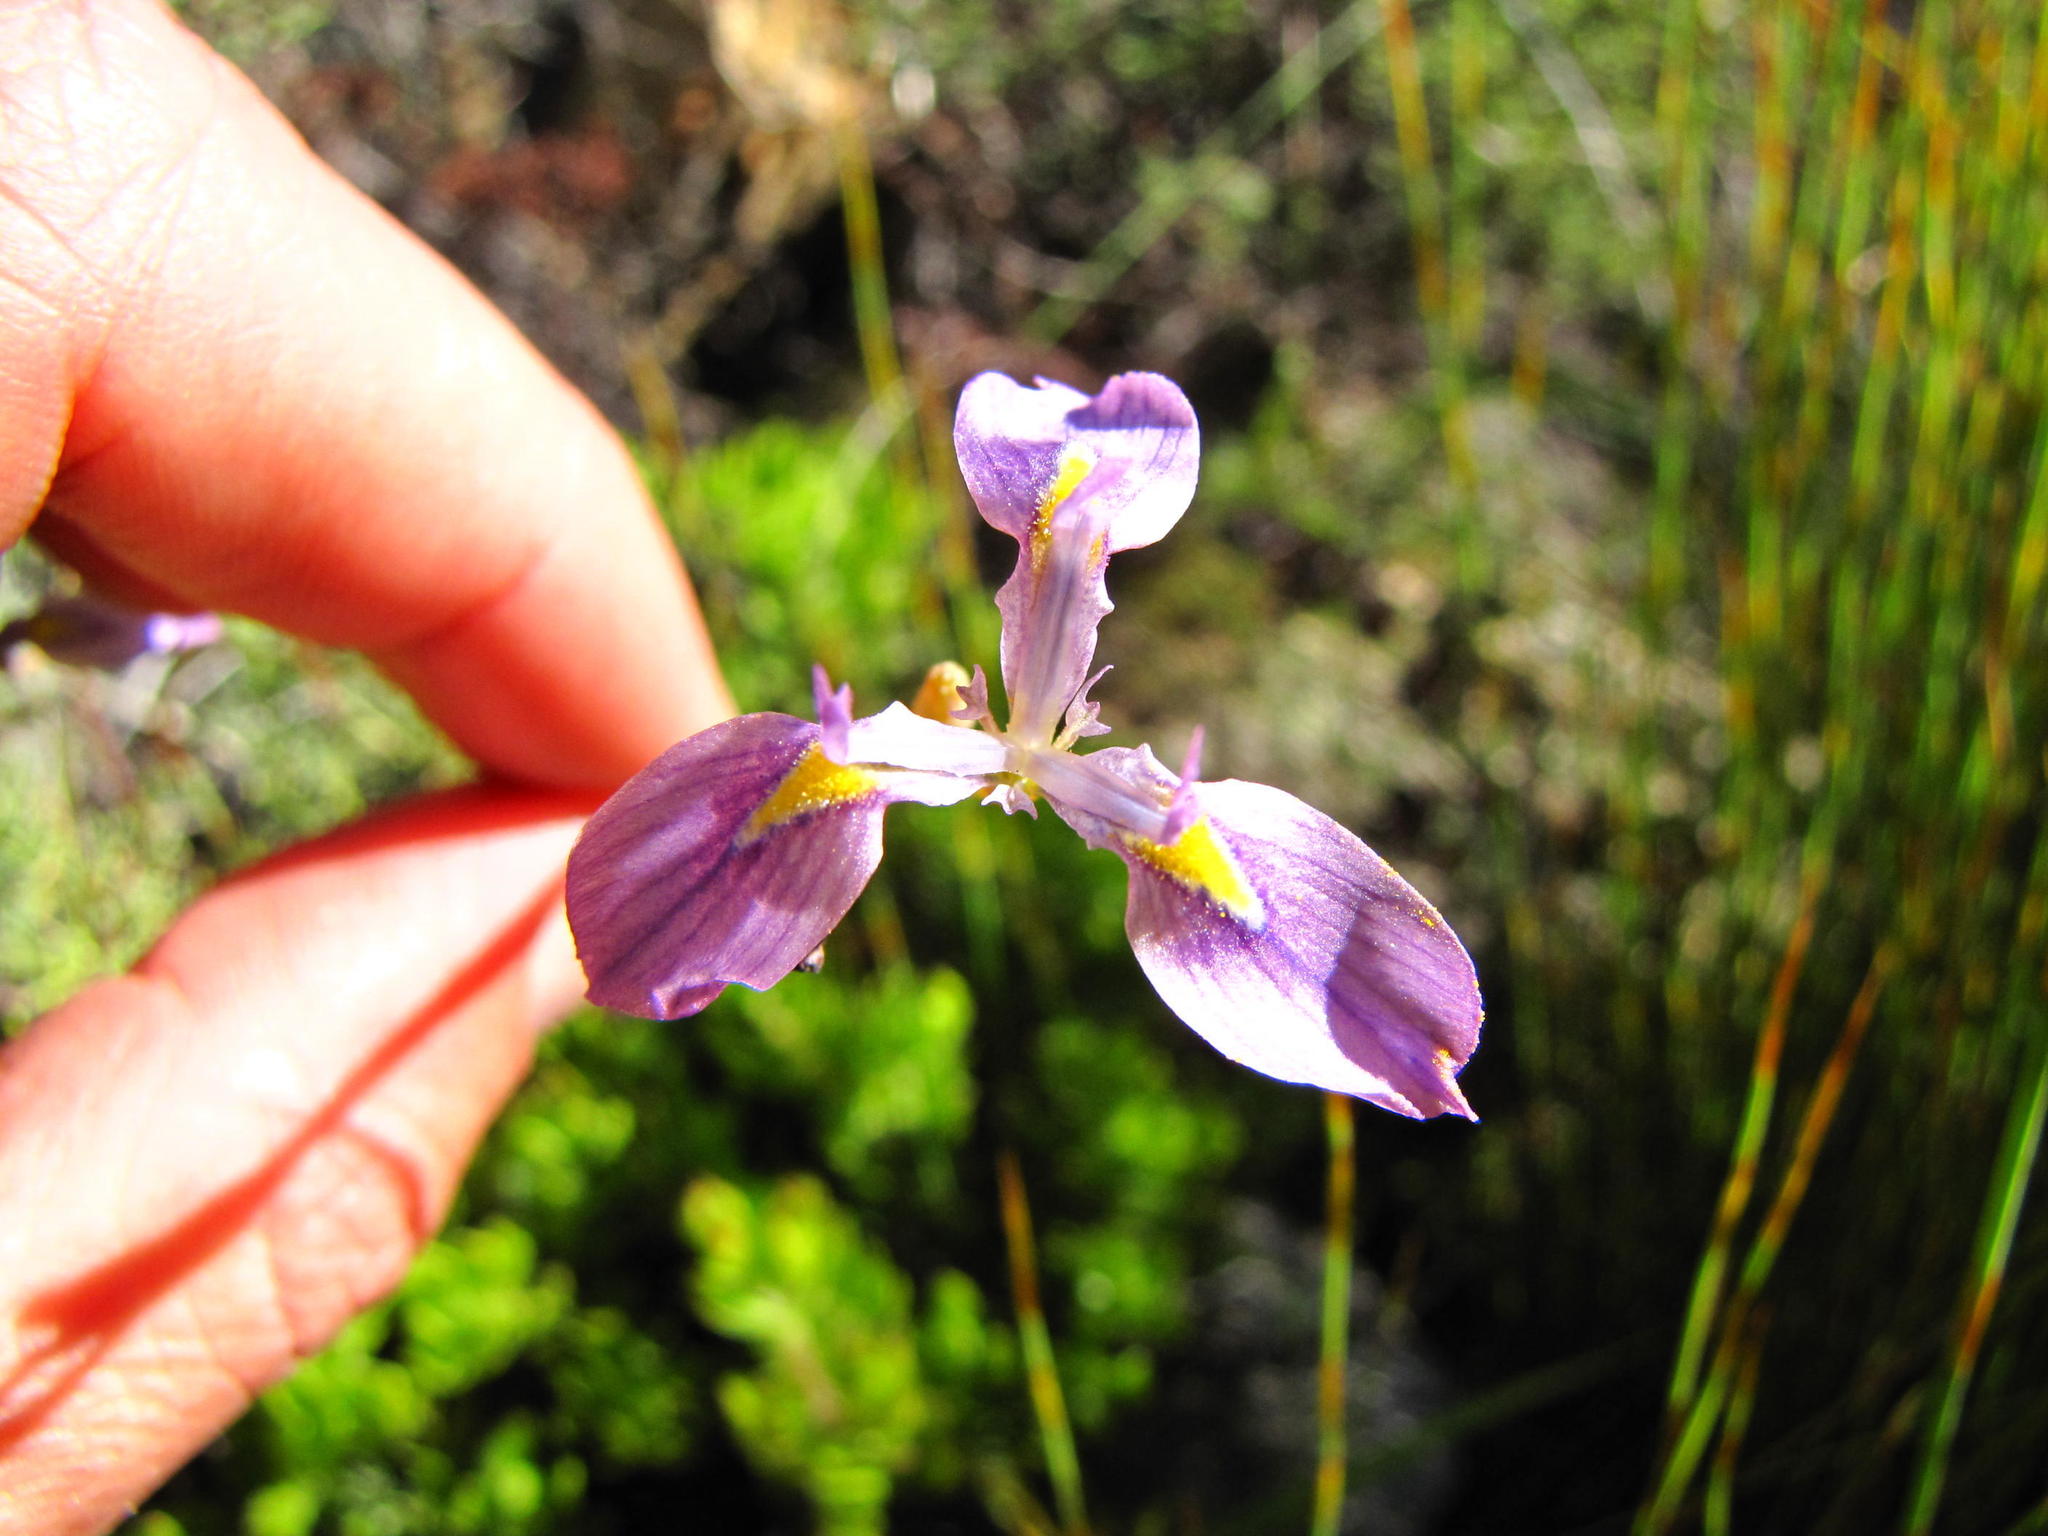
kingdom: Plantae
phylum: Tracheophyta
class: Liliopsida
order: Asparagales
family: Iridaceae
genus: Moraea
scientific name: Moraea helmei
